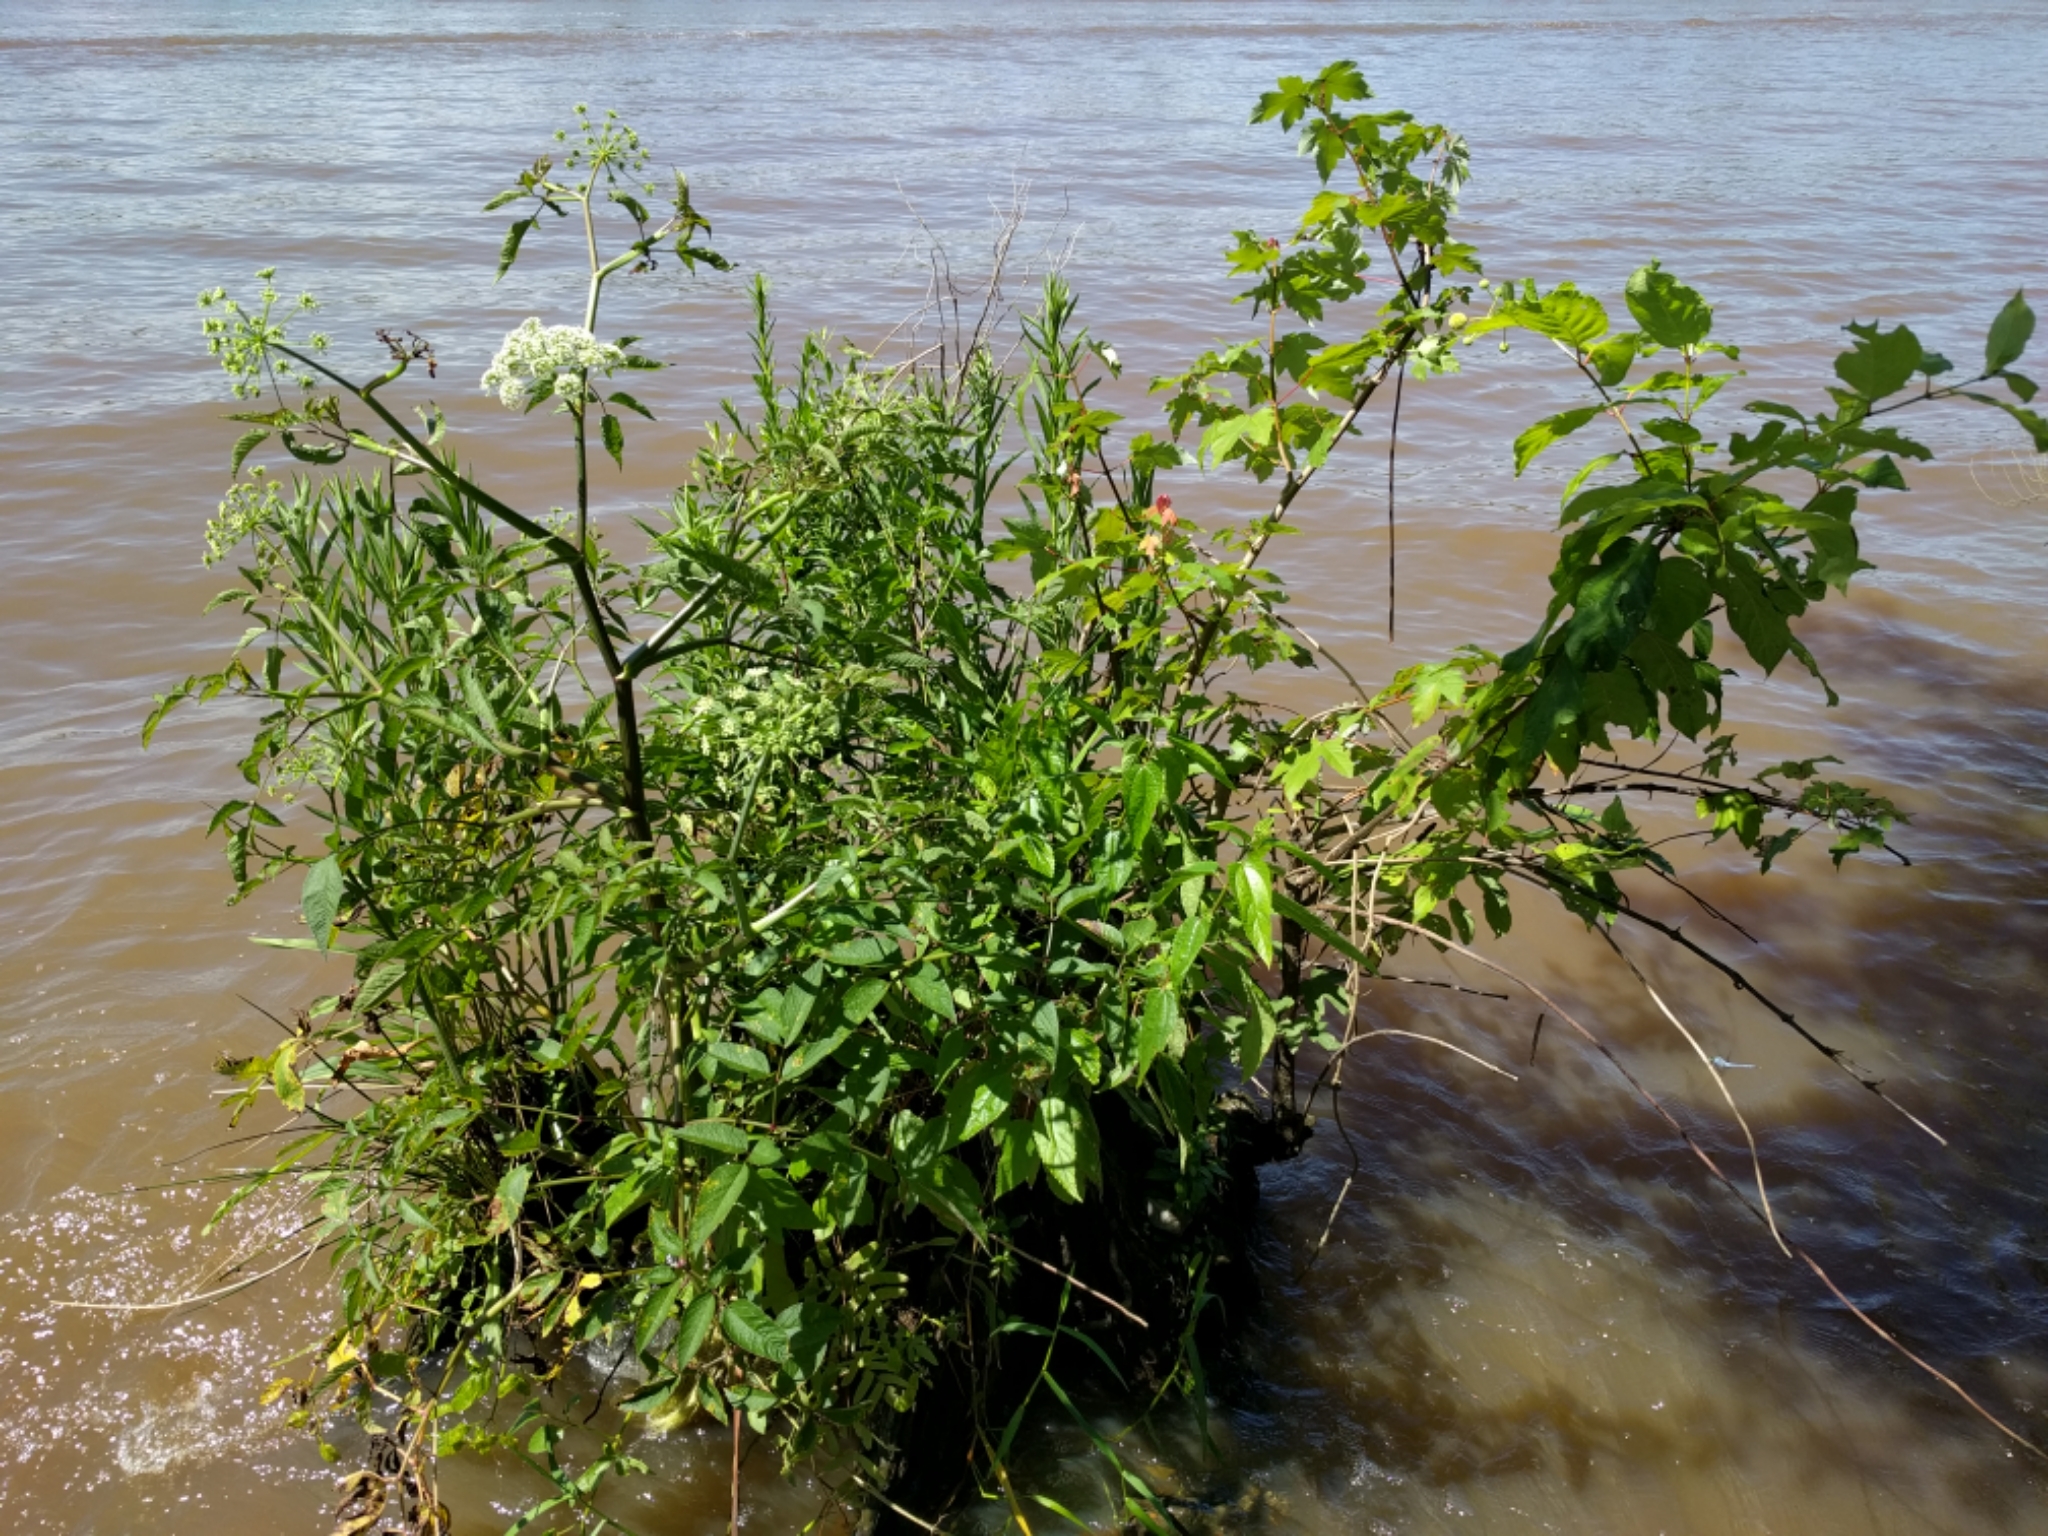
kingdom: Plantae
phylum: Tracheophyta
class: Magnoliopsida
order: Apiales
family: Apiaceae
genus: Cicuta
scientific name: Cicuta maculata
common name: Spotted cowbane
